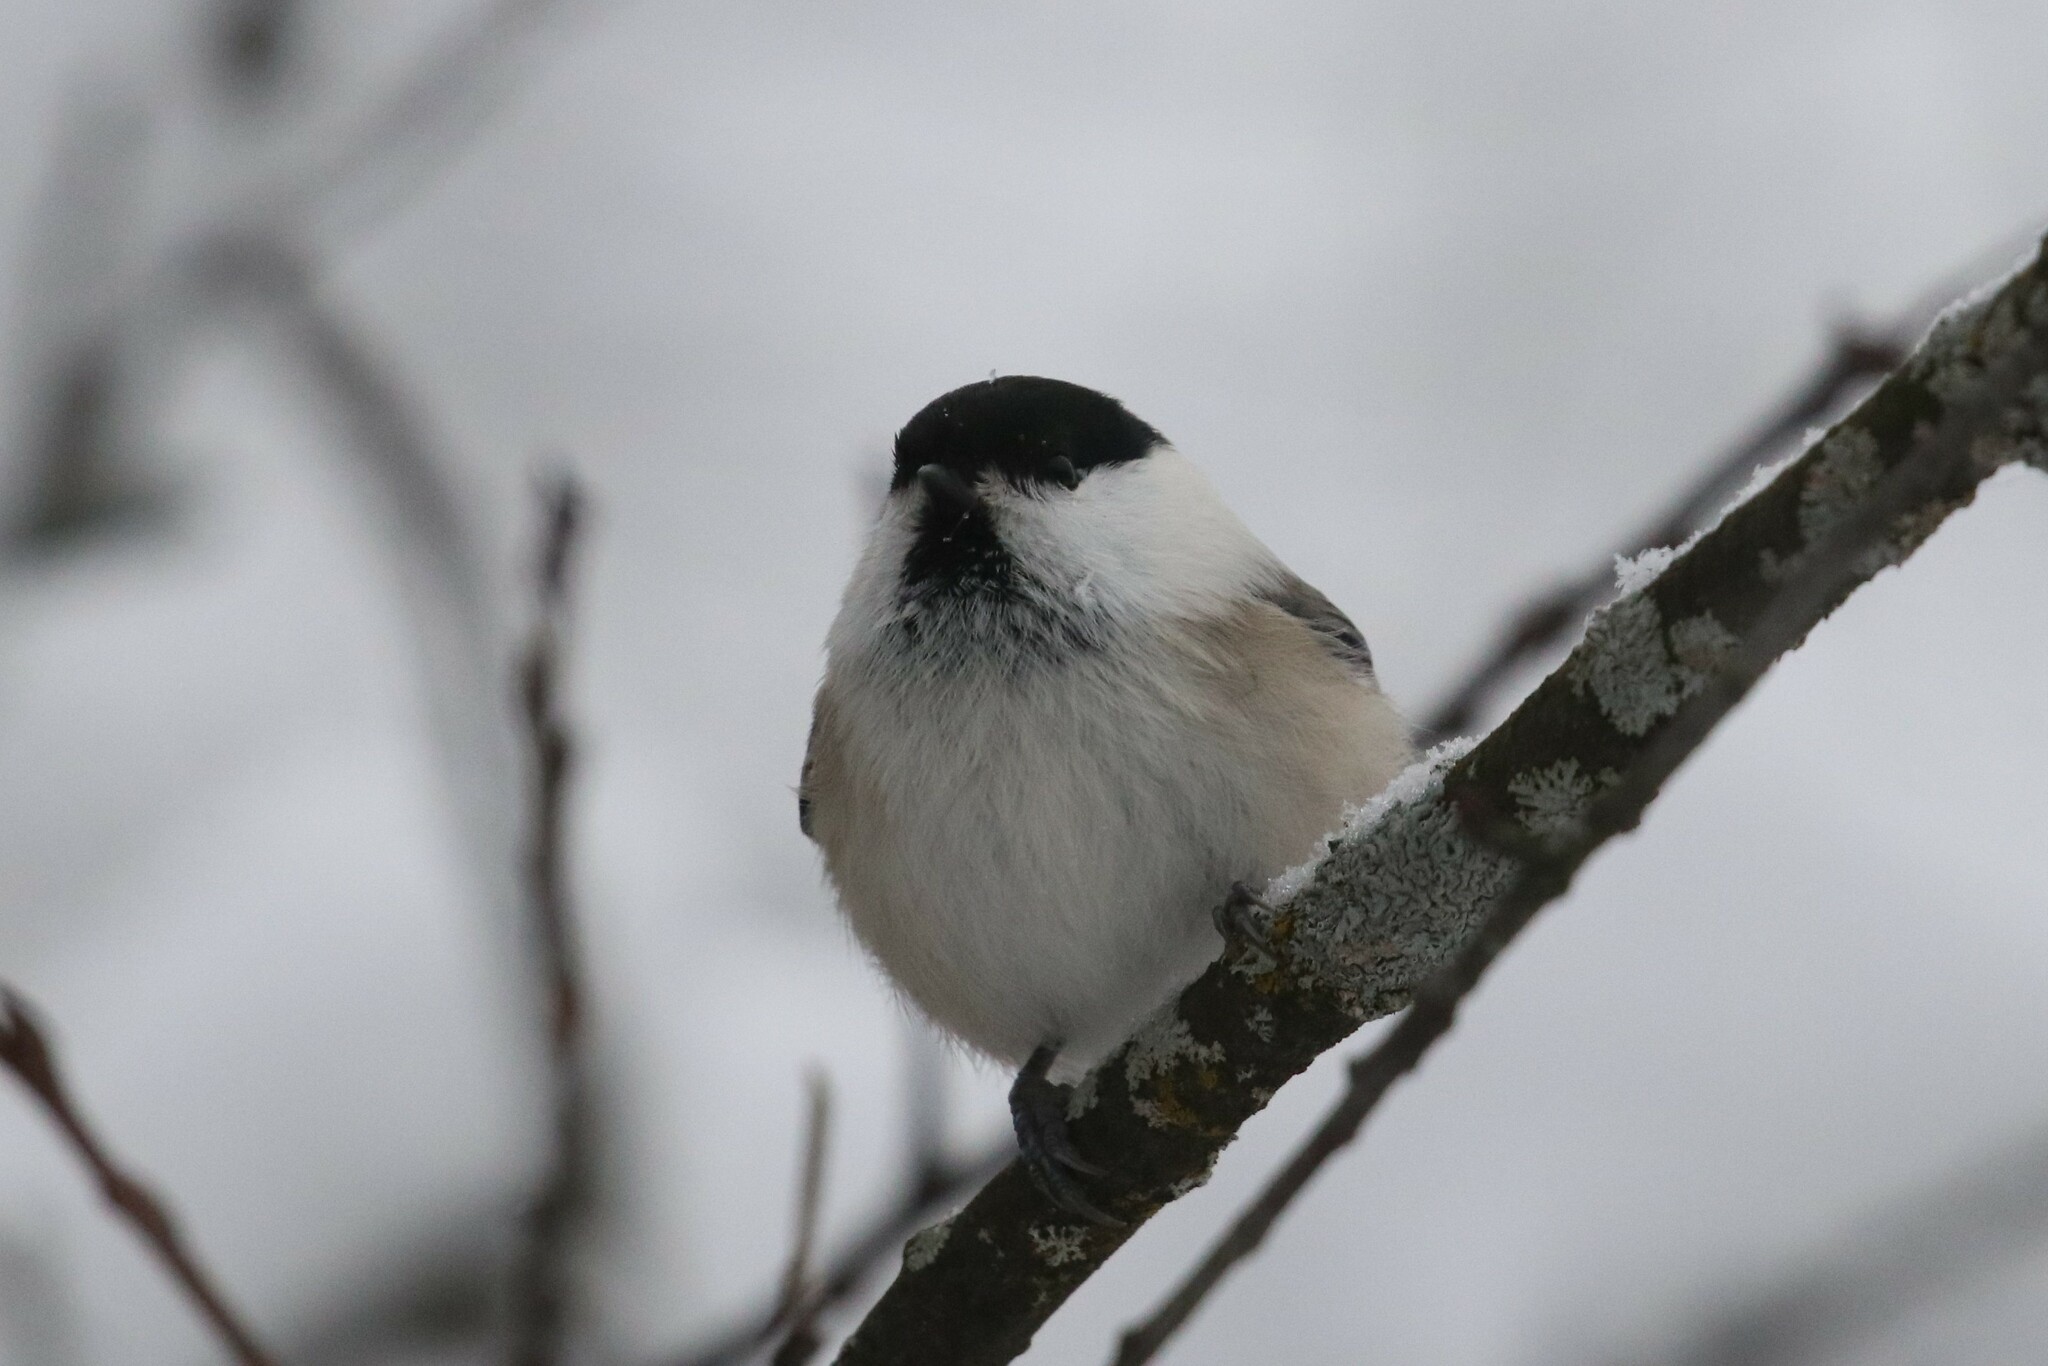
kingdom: Animalia
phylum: Chordata
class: Aves
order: Passeriformes
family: Paridae
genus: Poecile
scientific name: Poecile montanus
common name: Willow tit
